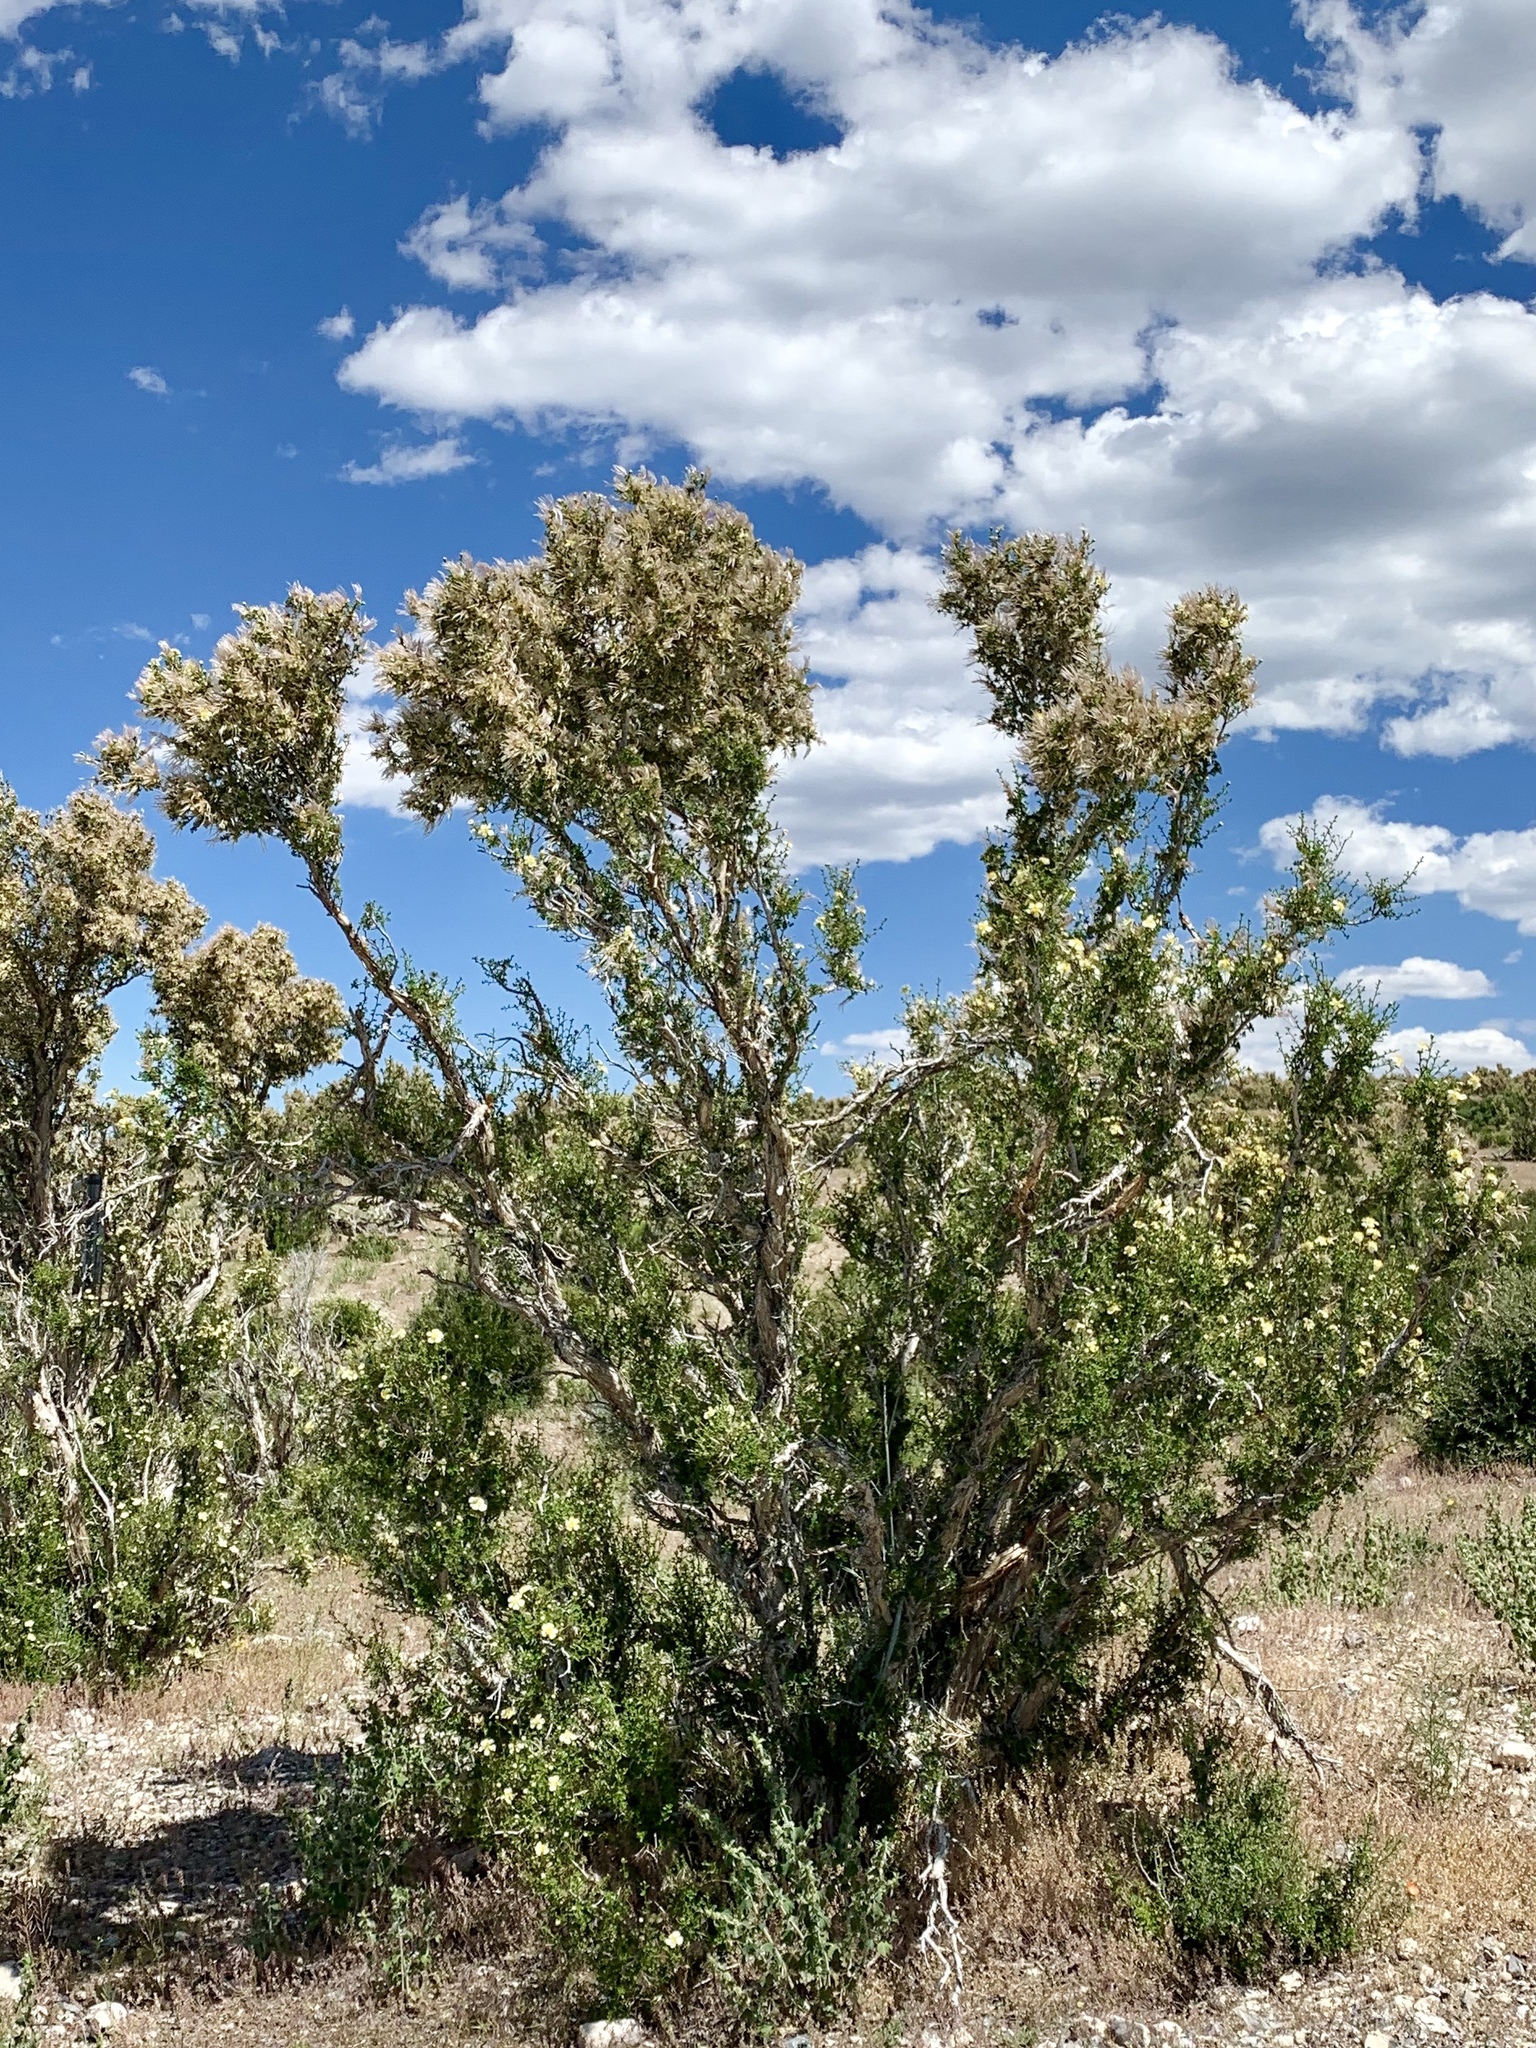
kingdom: Plantae
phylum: Tracheophyta
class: Magnoliopsida
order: Rosales
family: Rosaceae
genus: Purshia
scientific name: Purshia stansburiana
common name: Stansbury's cliffrose
